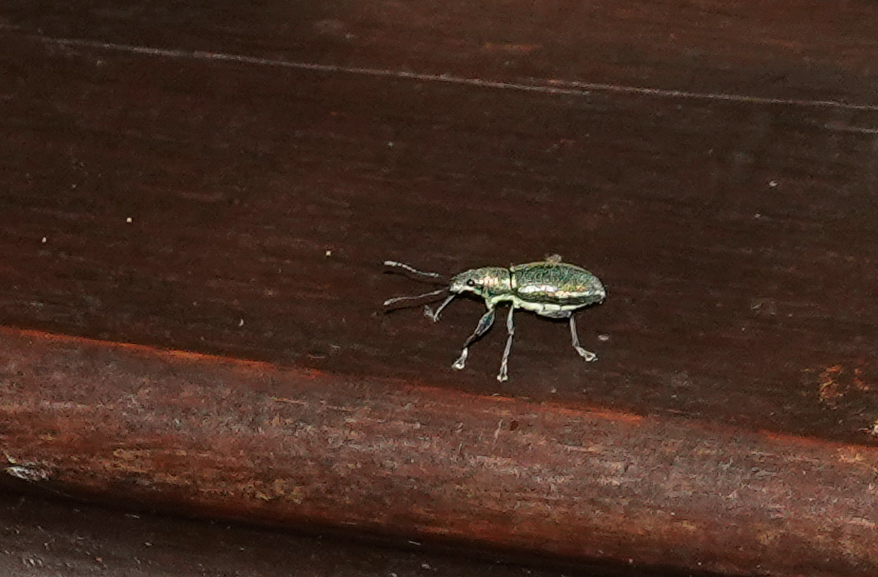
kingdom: Animalia
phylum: Arthropoda
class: Insecta
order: Coleoptera
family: Curculionidae
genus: Naupactus
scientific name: Naupactus auricinctus
